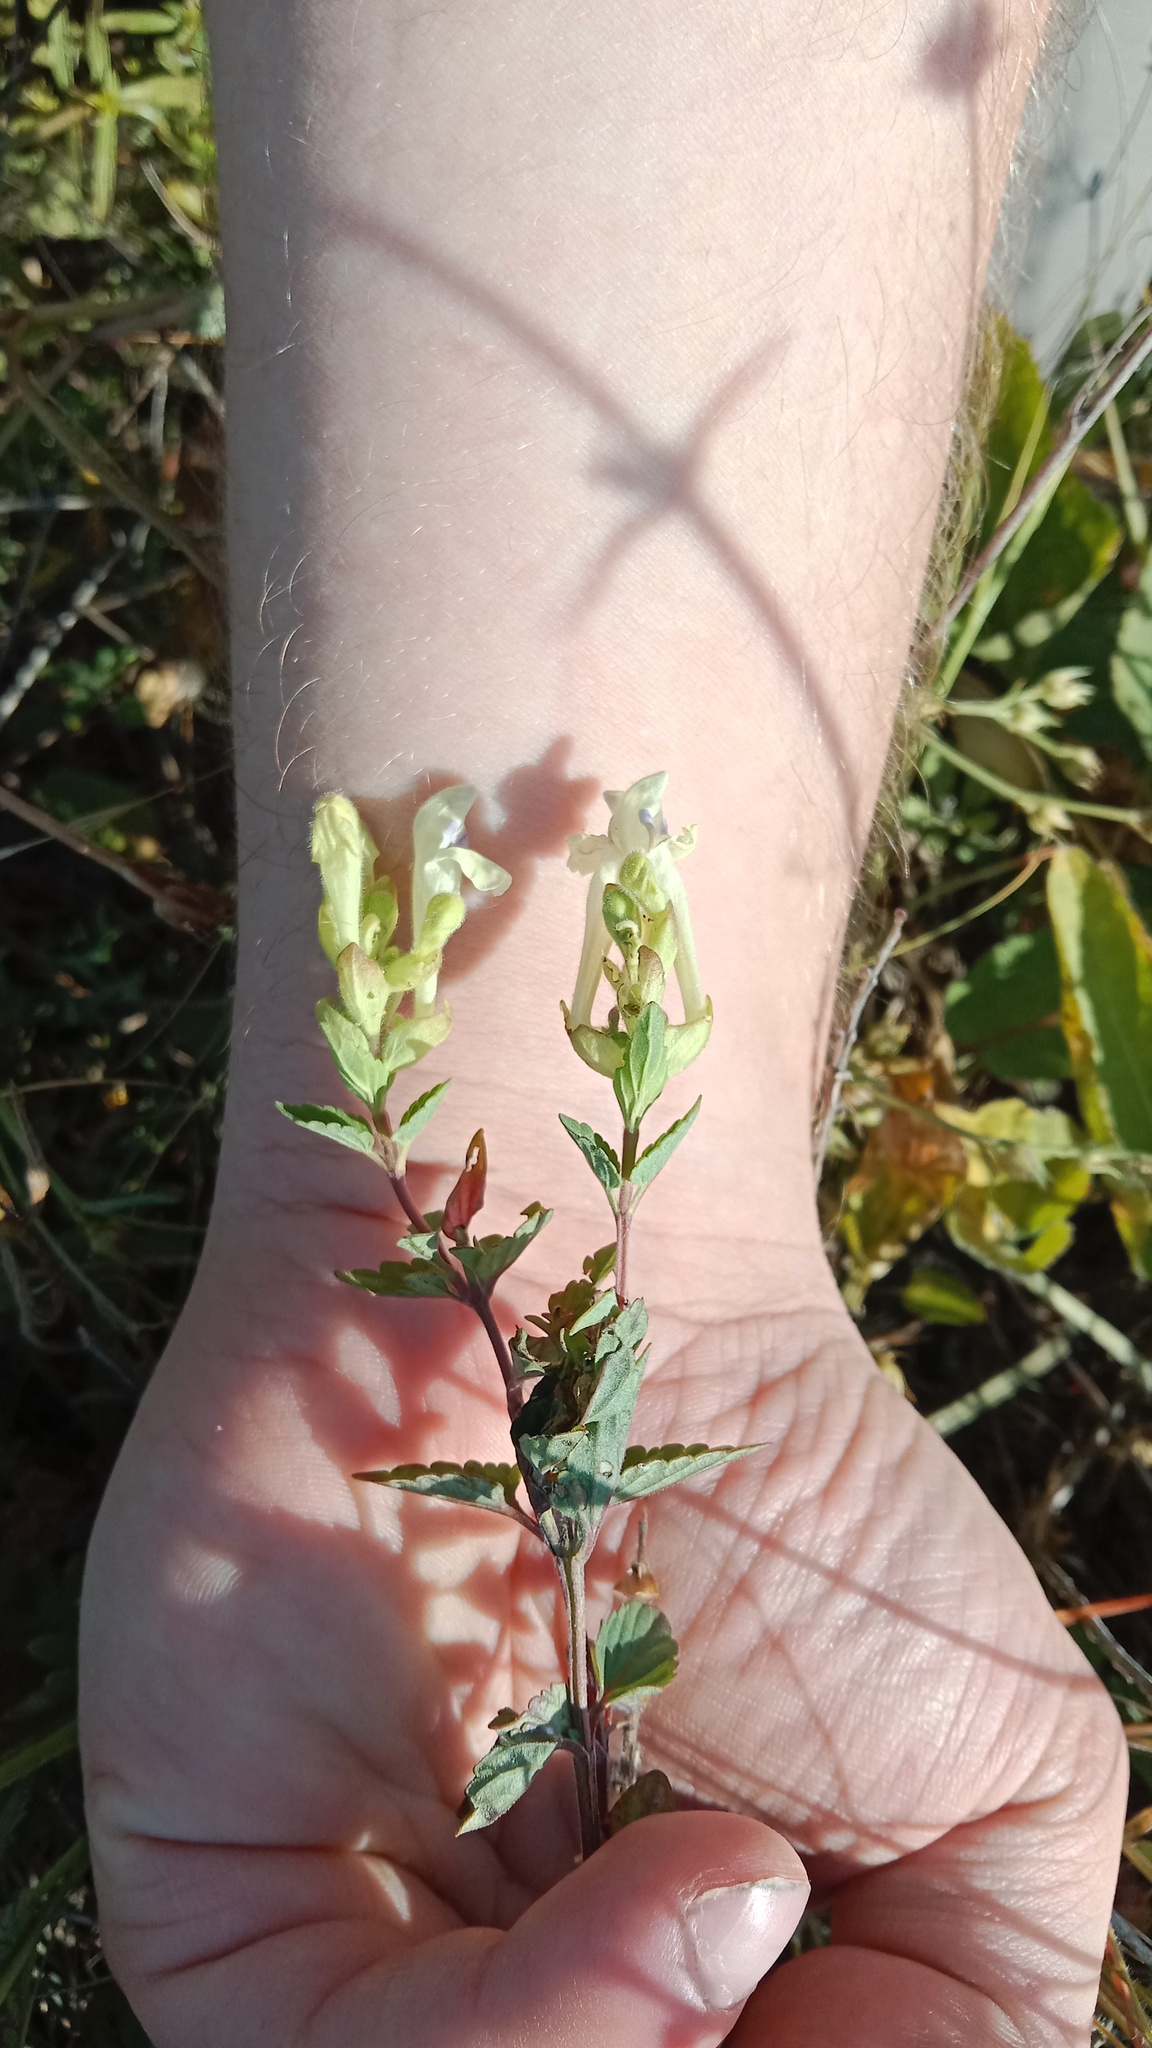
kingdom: Plantae
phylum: Tracheophyta
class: Magnoliopsida
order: Lamiales
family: Lamiaceae
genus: Scutellaria
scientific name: Scutellaria supina
